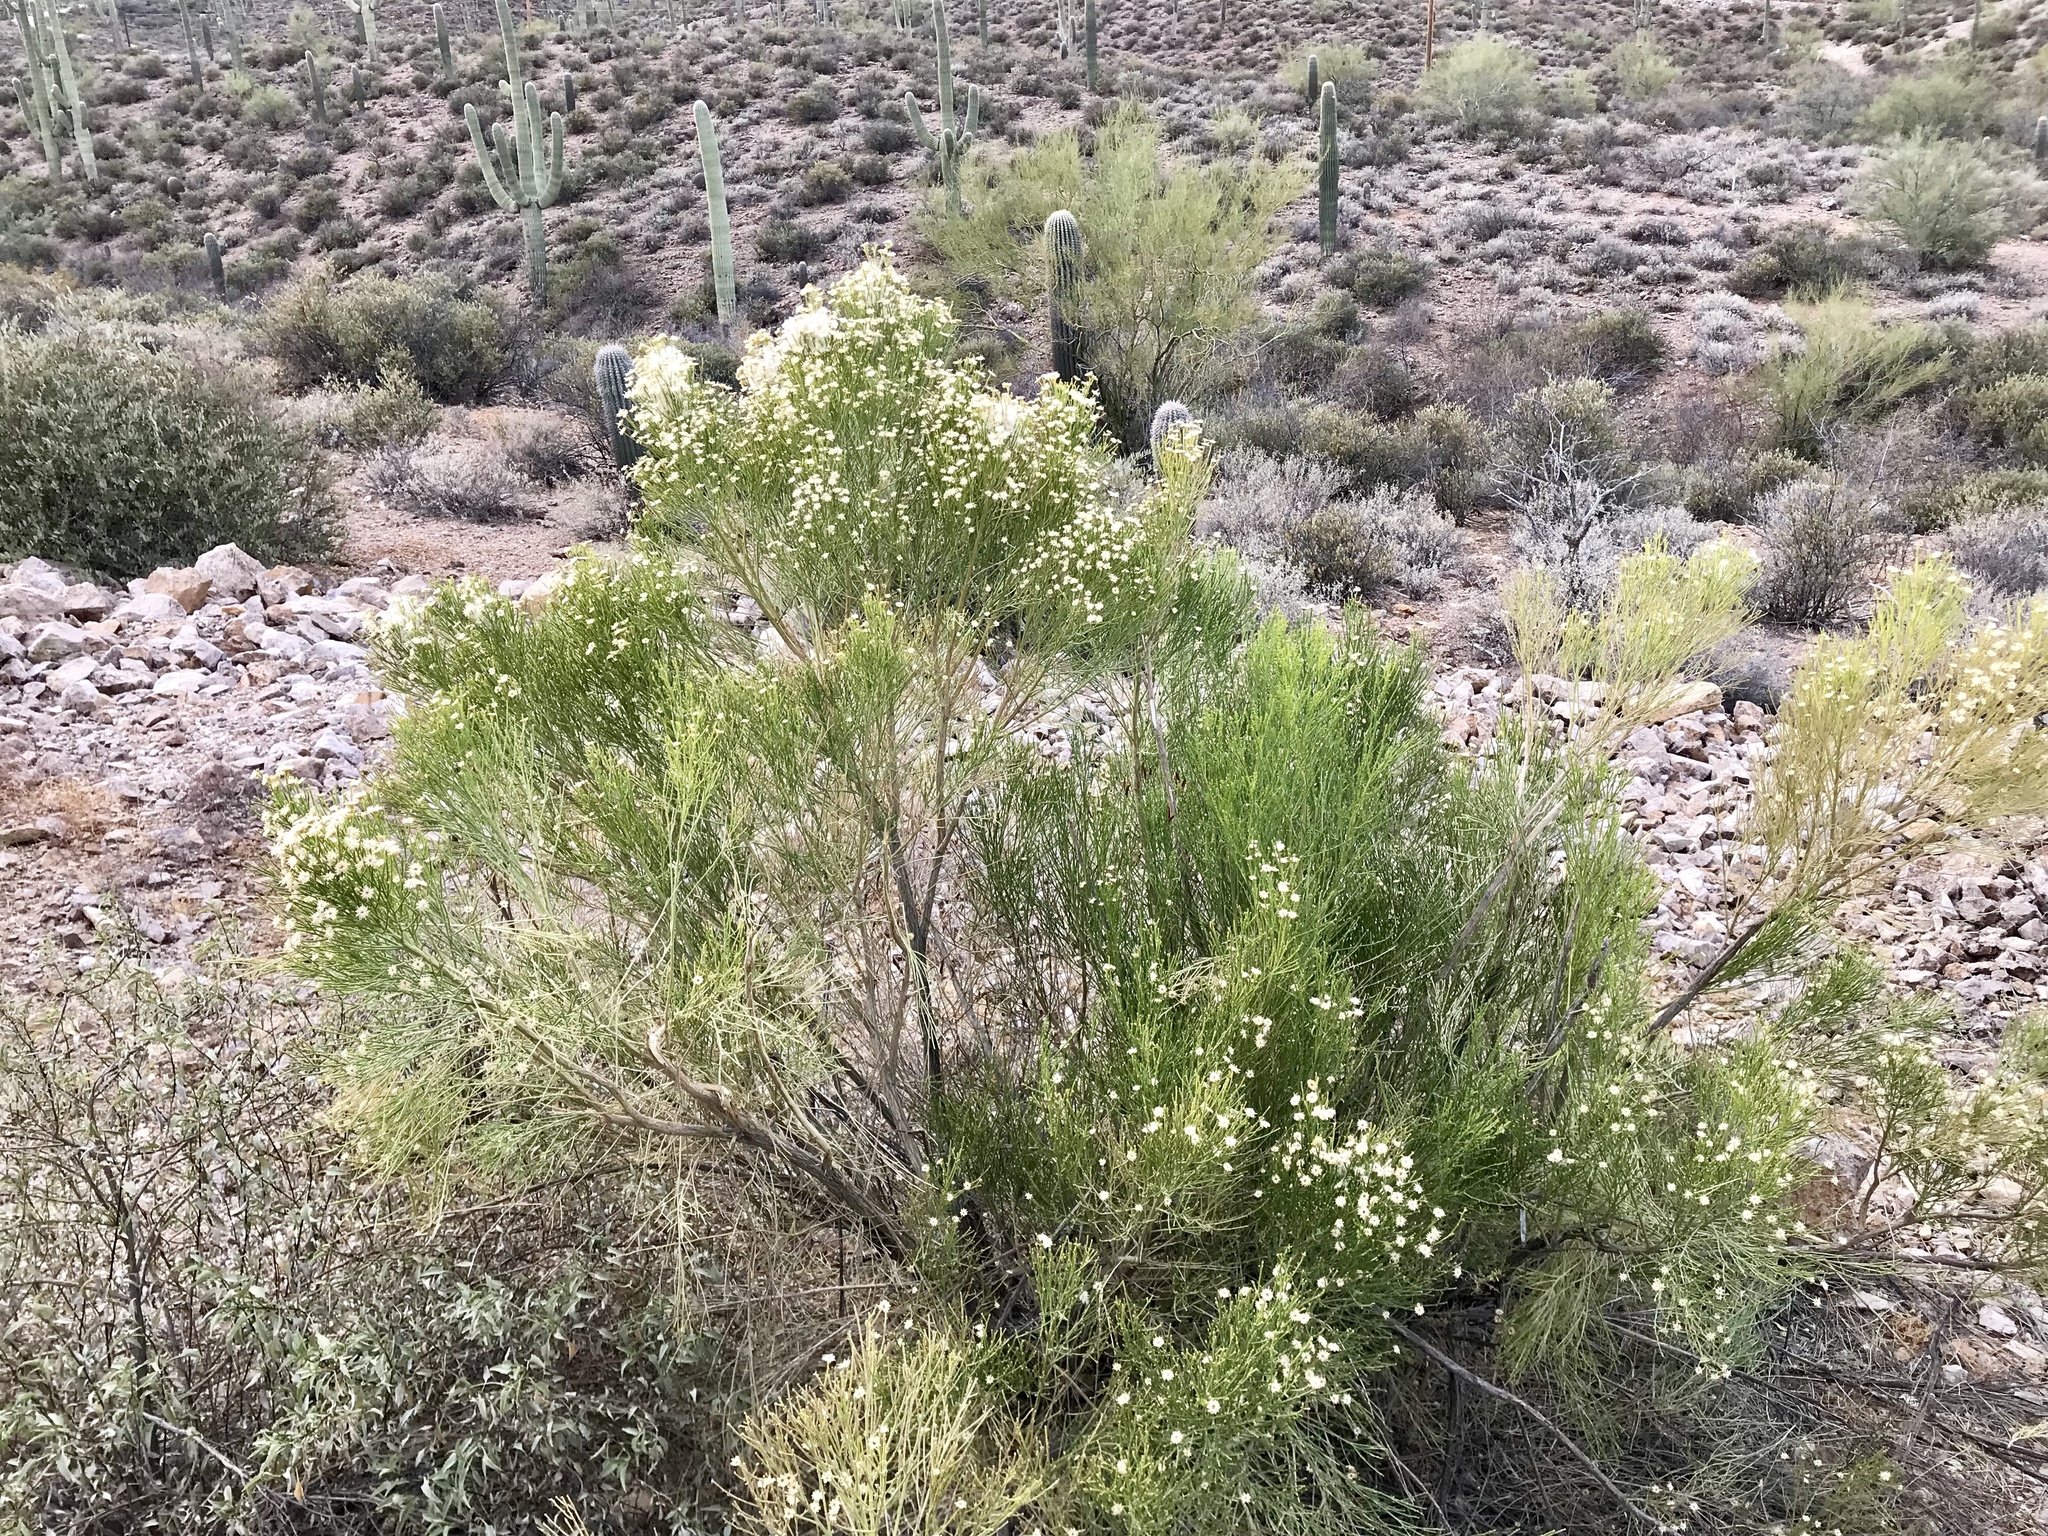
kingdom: Plantae
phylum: Tracheophyta
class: Magnoliopsida
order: Asterales
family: Asteraceae
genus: Baccharis
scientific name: Baccharis sarothroides
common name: Desert-broom
